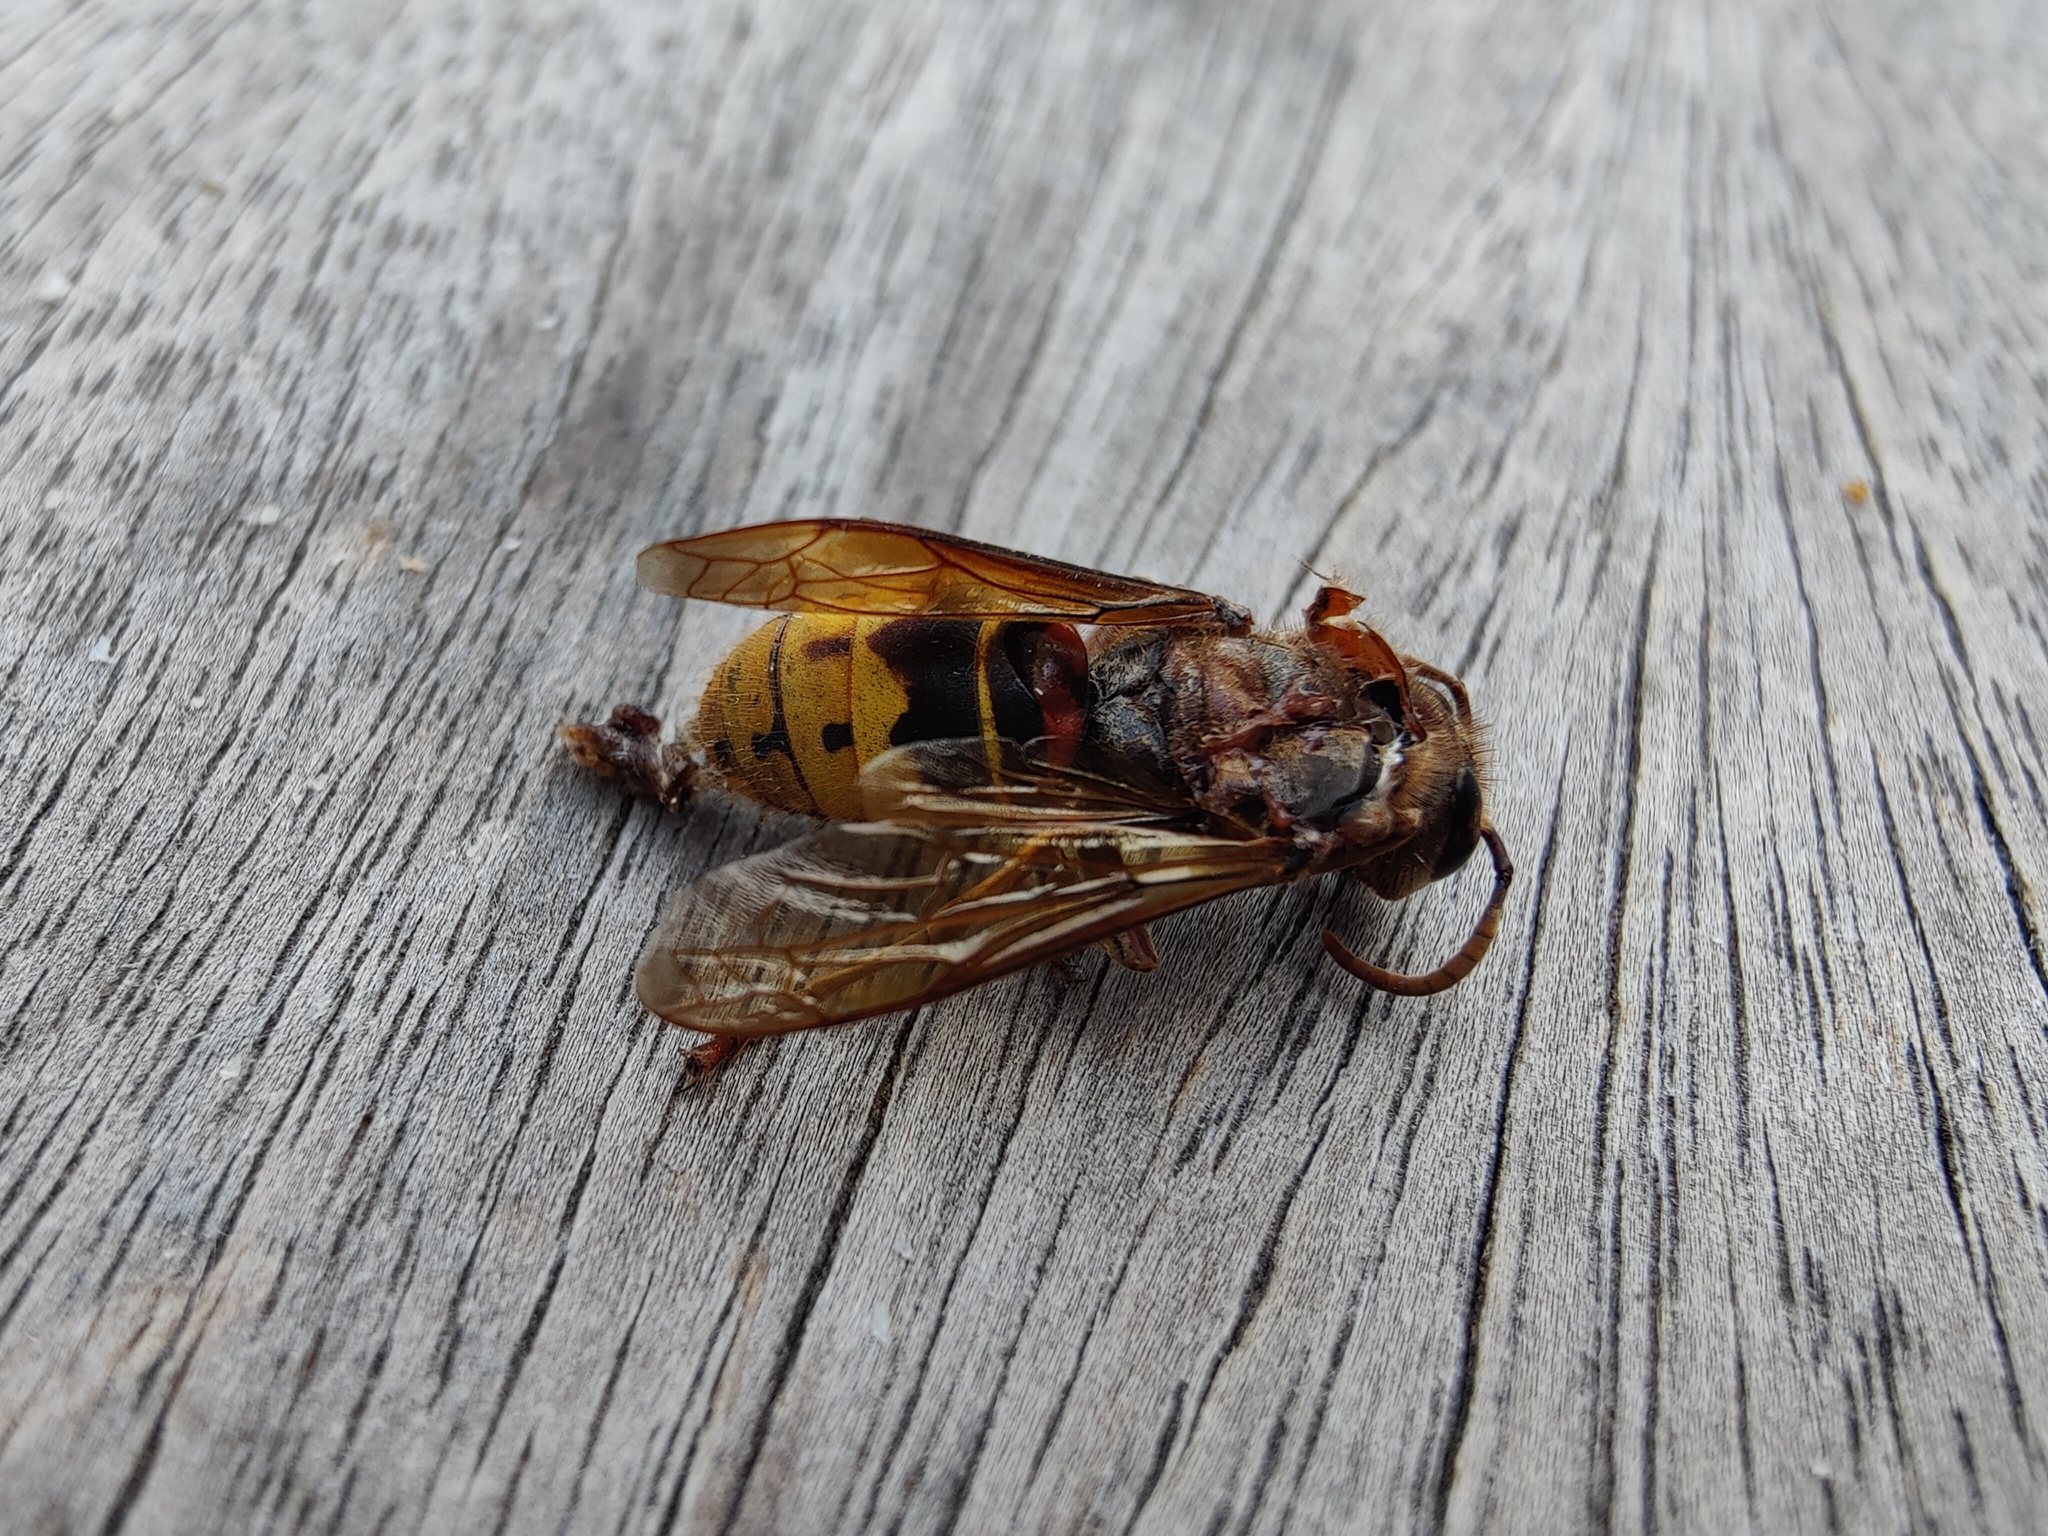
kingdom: Animalia
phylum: Arthropoda
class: Insecta
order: Hymenoptera
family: Vespidae
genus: Vespa
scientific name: Vespa crabro
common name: Hornet
